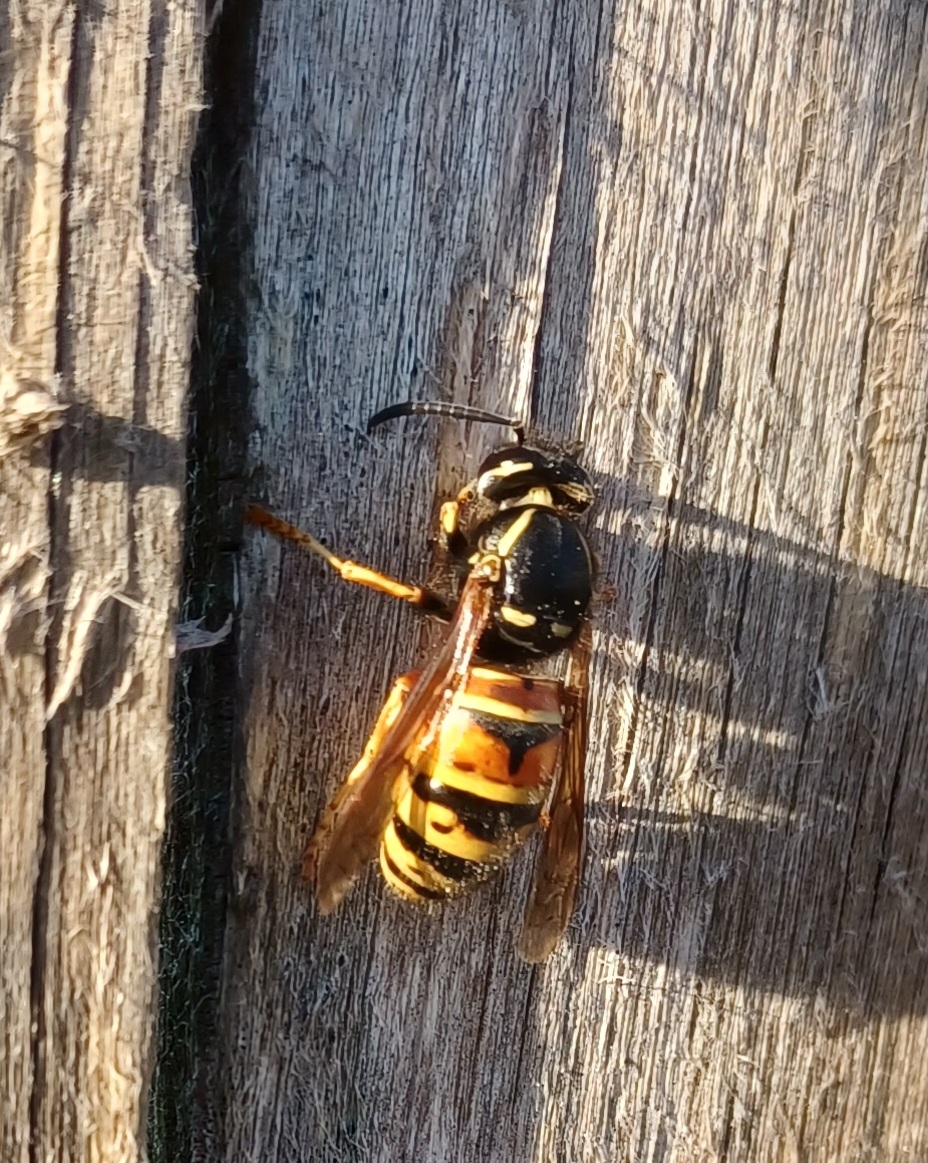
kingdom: Animalia
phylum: Arthropoda
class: Insecta
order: Hymenoptera
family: Vespidae
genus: Vespula
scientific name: Vespula rufa
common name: Red wasp
